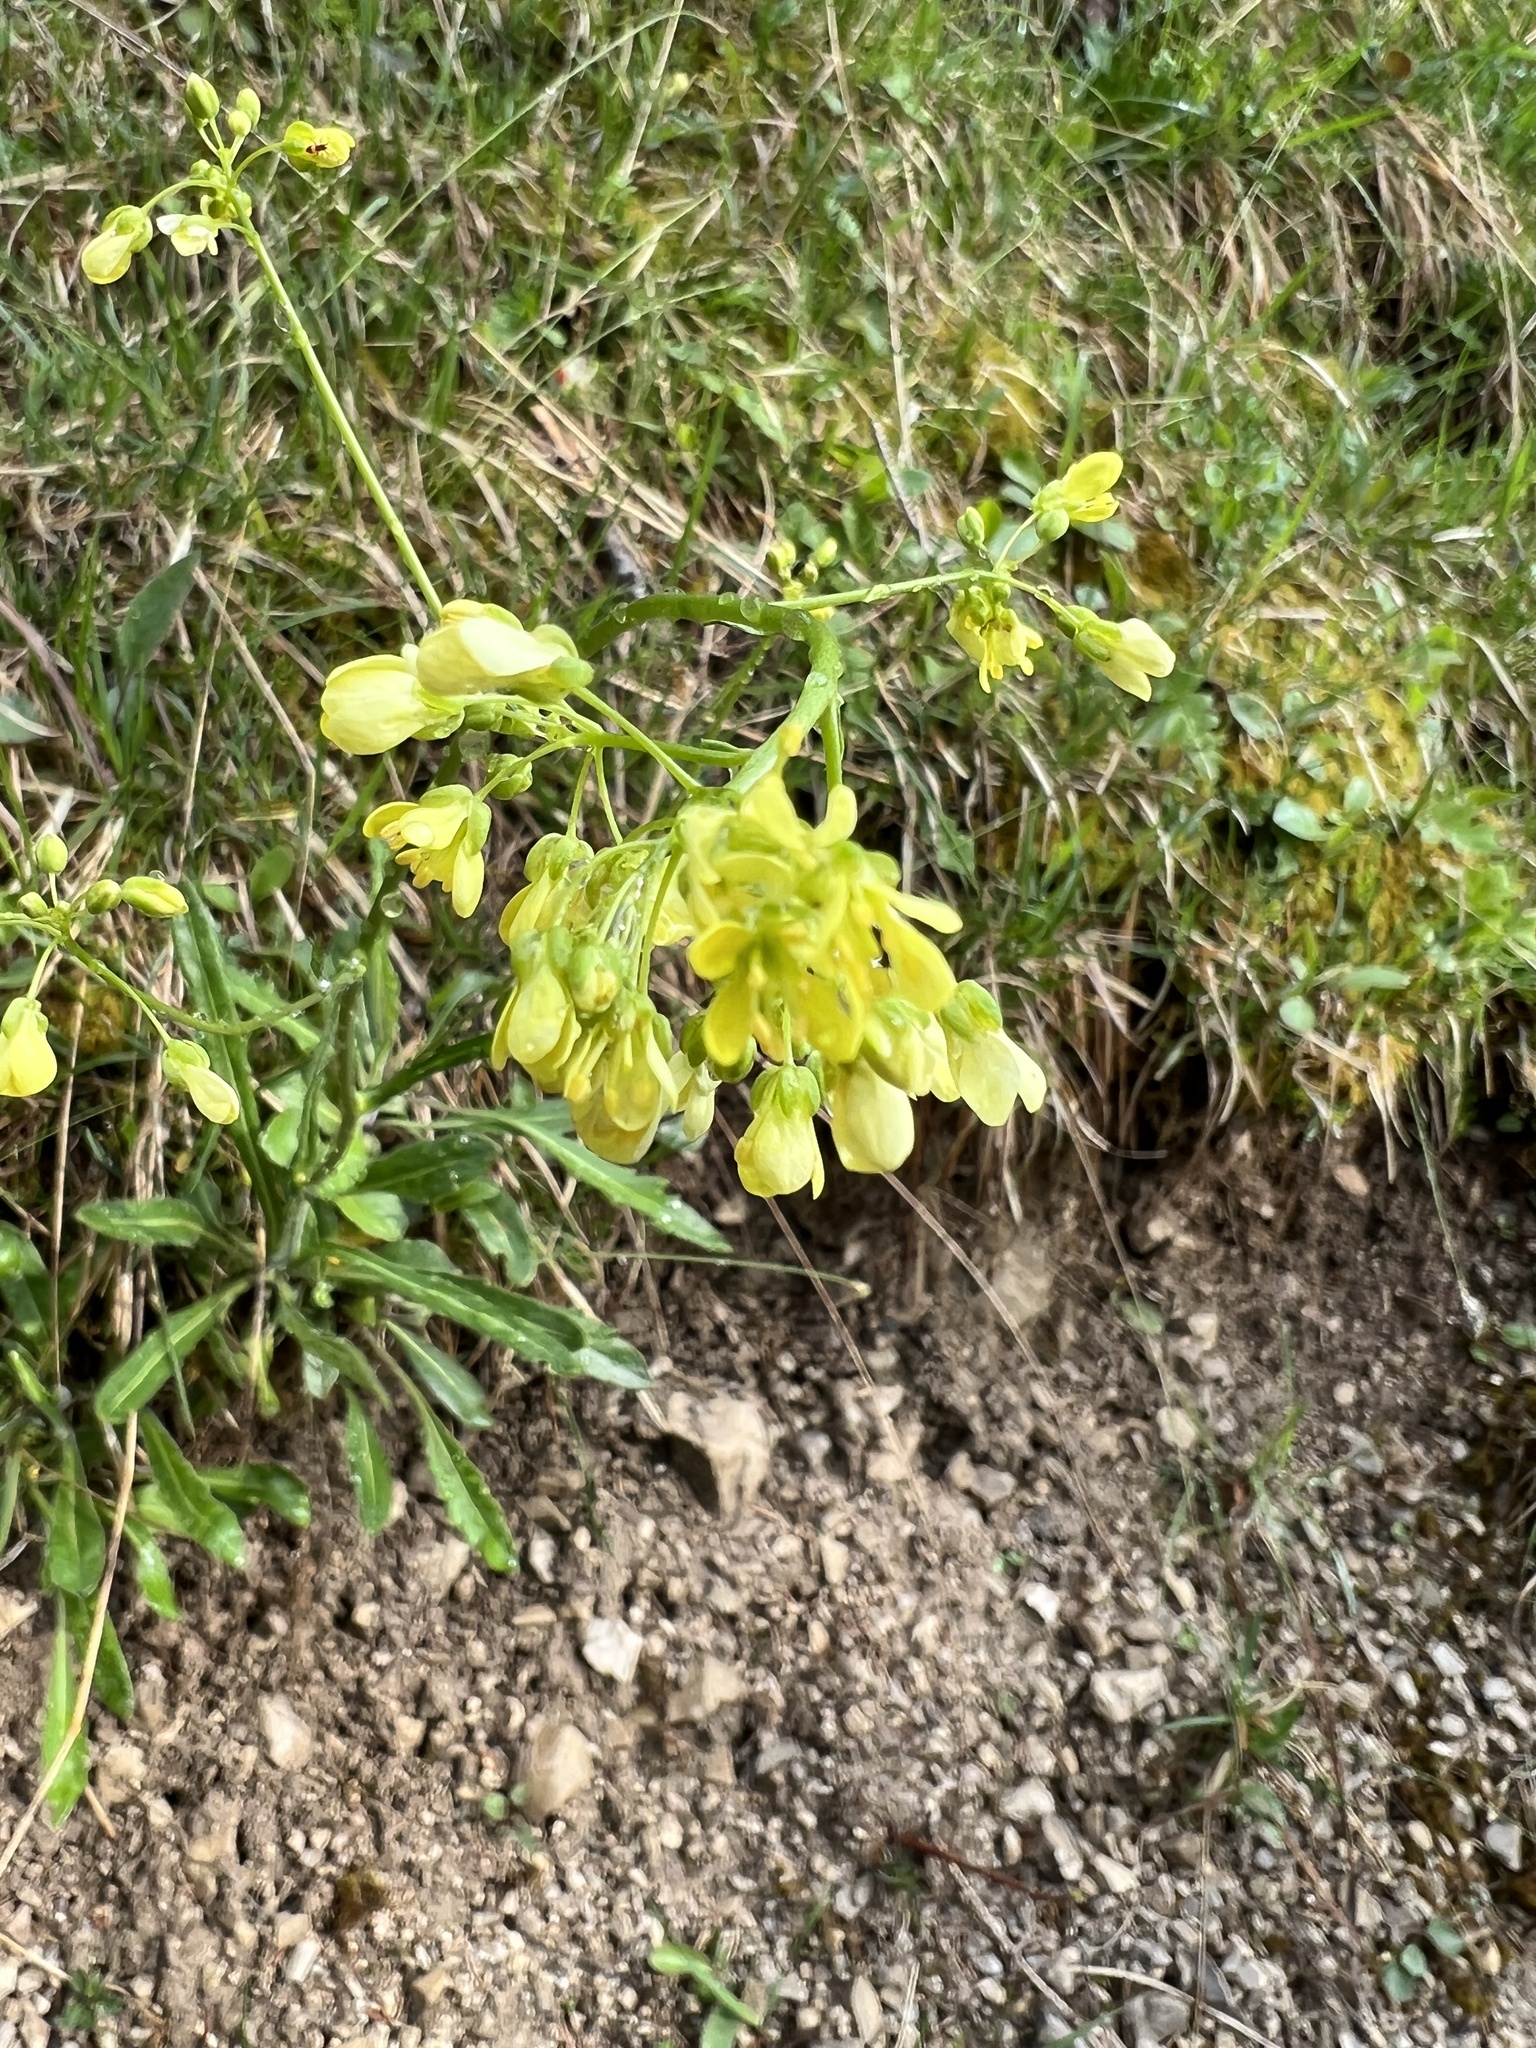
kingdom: Plantae
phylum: Tracheophyta
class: Magnoliopsida
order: Brassicales
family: Brassicaceae
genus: Biscutella
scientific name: Biscutella laevigata
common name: Buckler mustard
